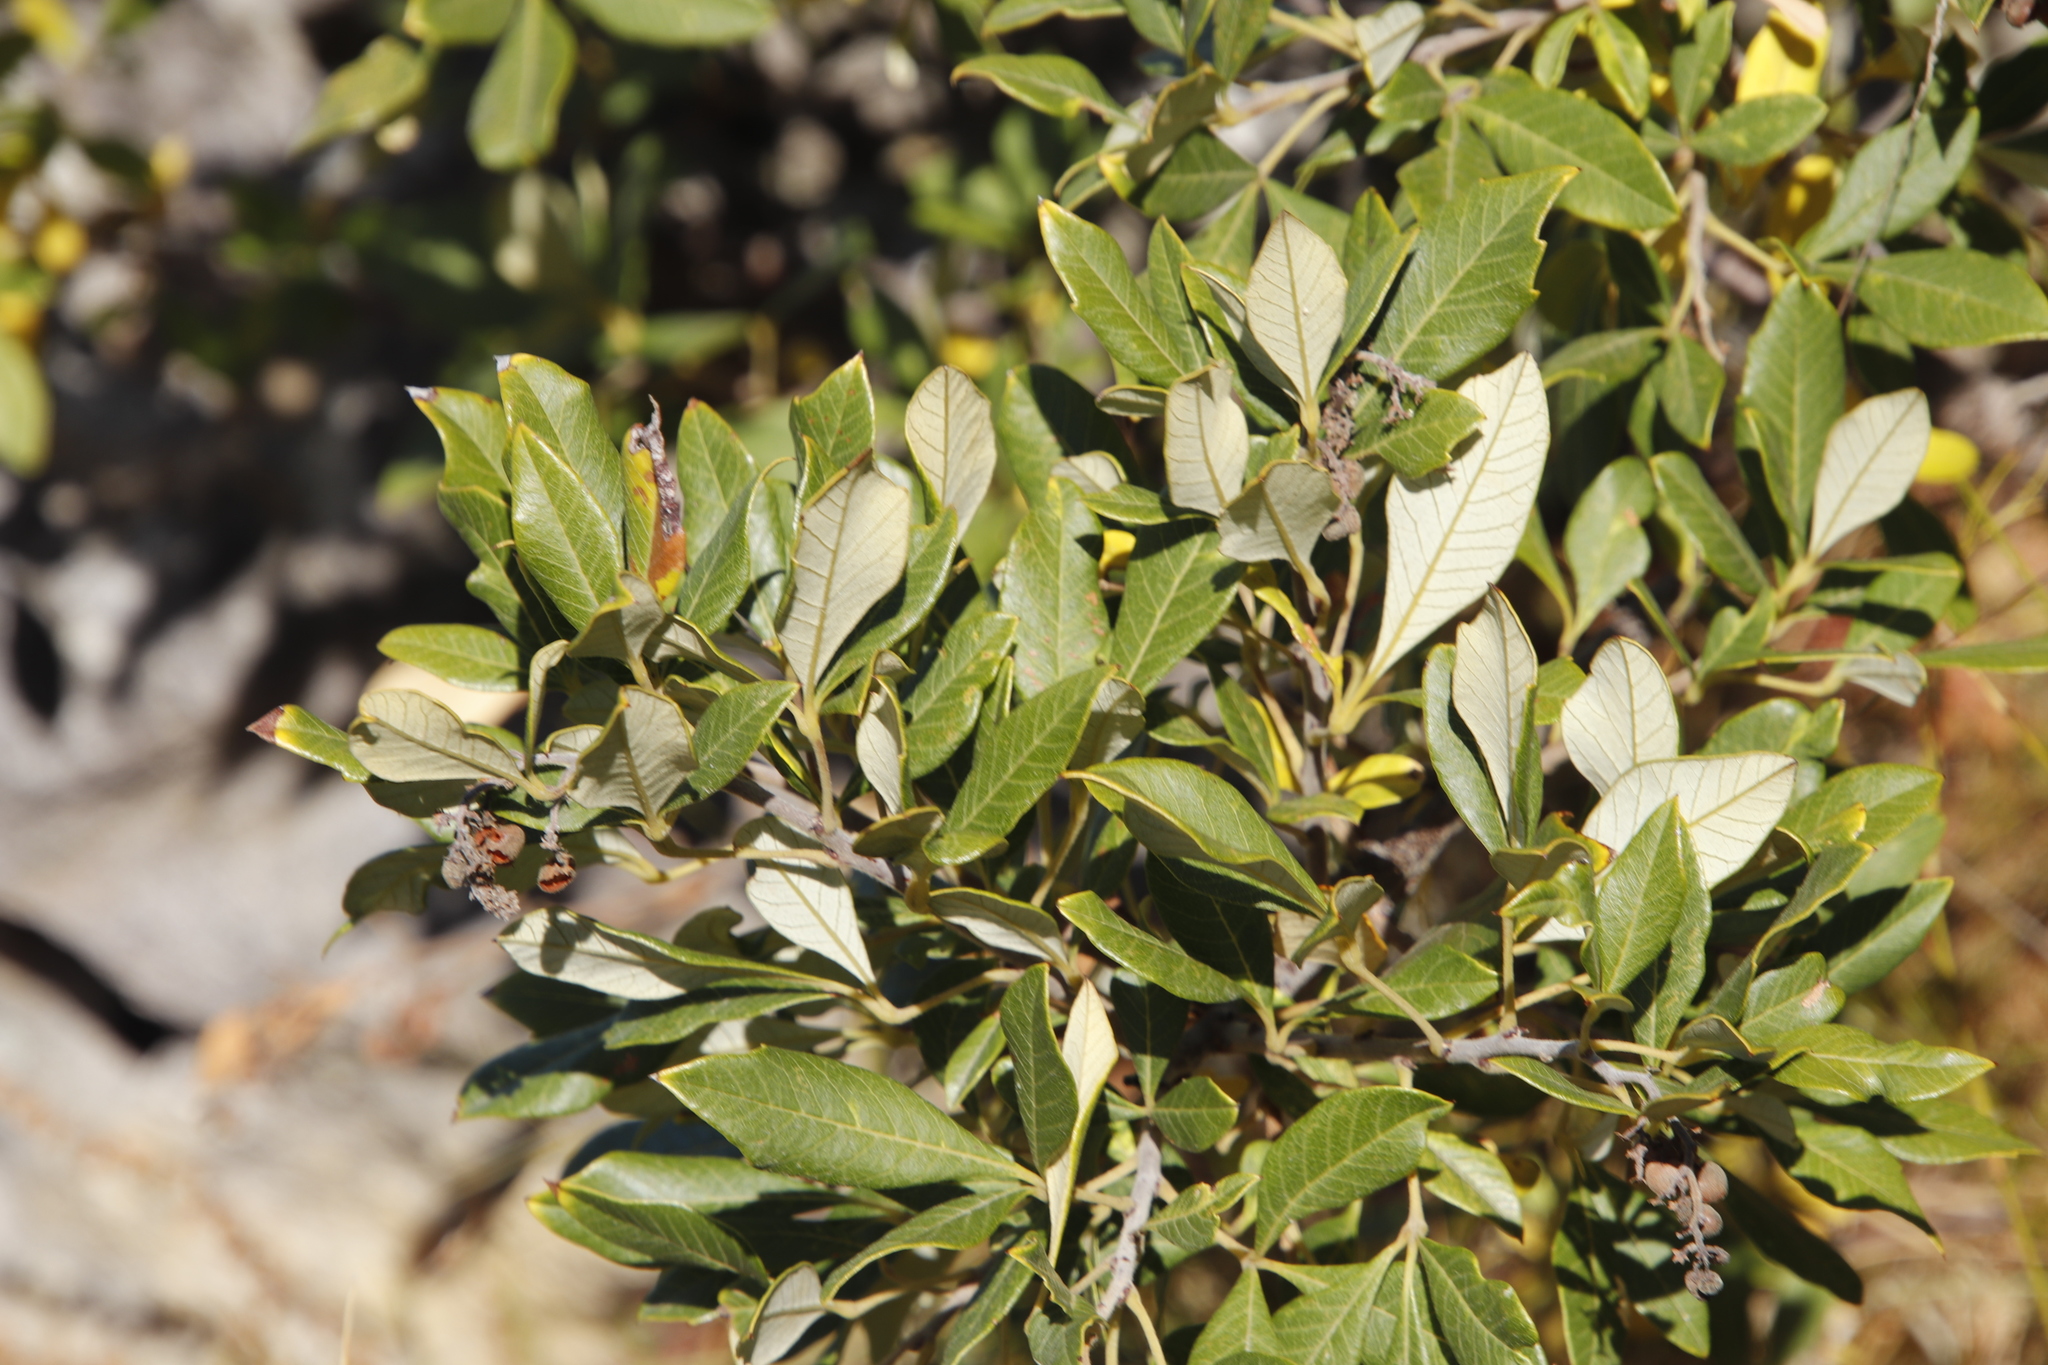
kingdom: Plantae
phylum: Tracheophyta
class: Magnoliopsida
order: Sapindales
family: Anacardiaceae
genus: Searsia
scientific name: Searsia tomentosa
